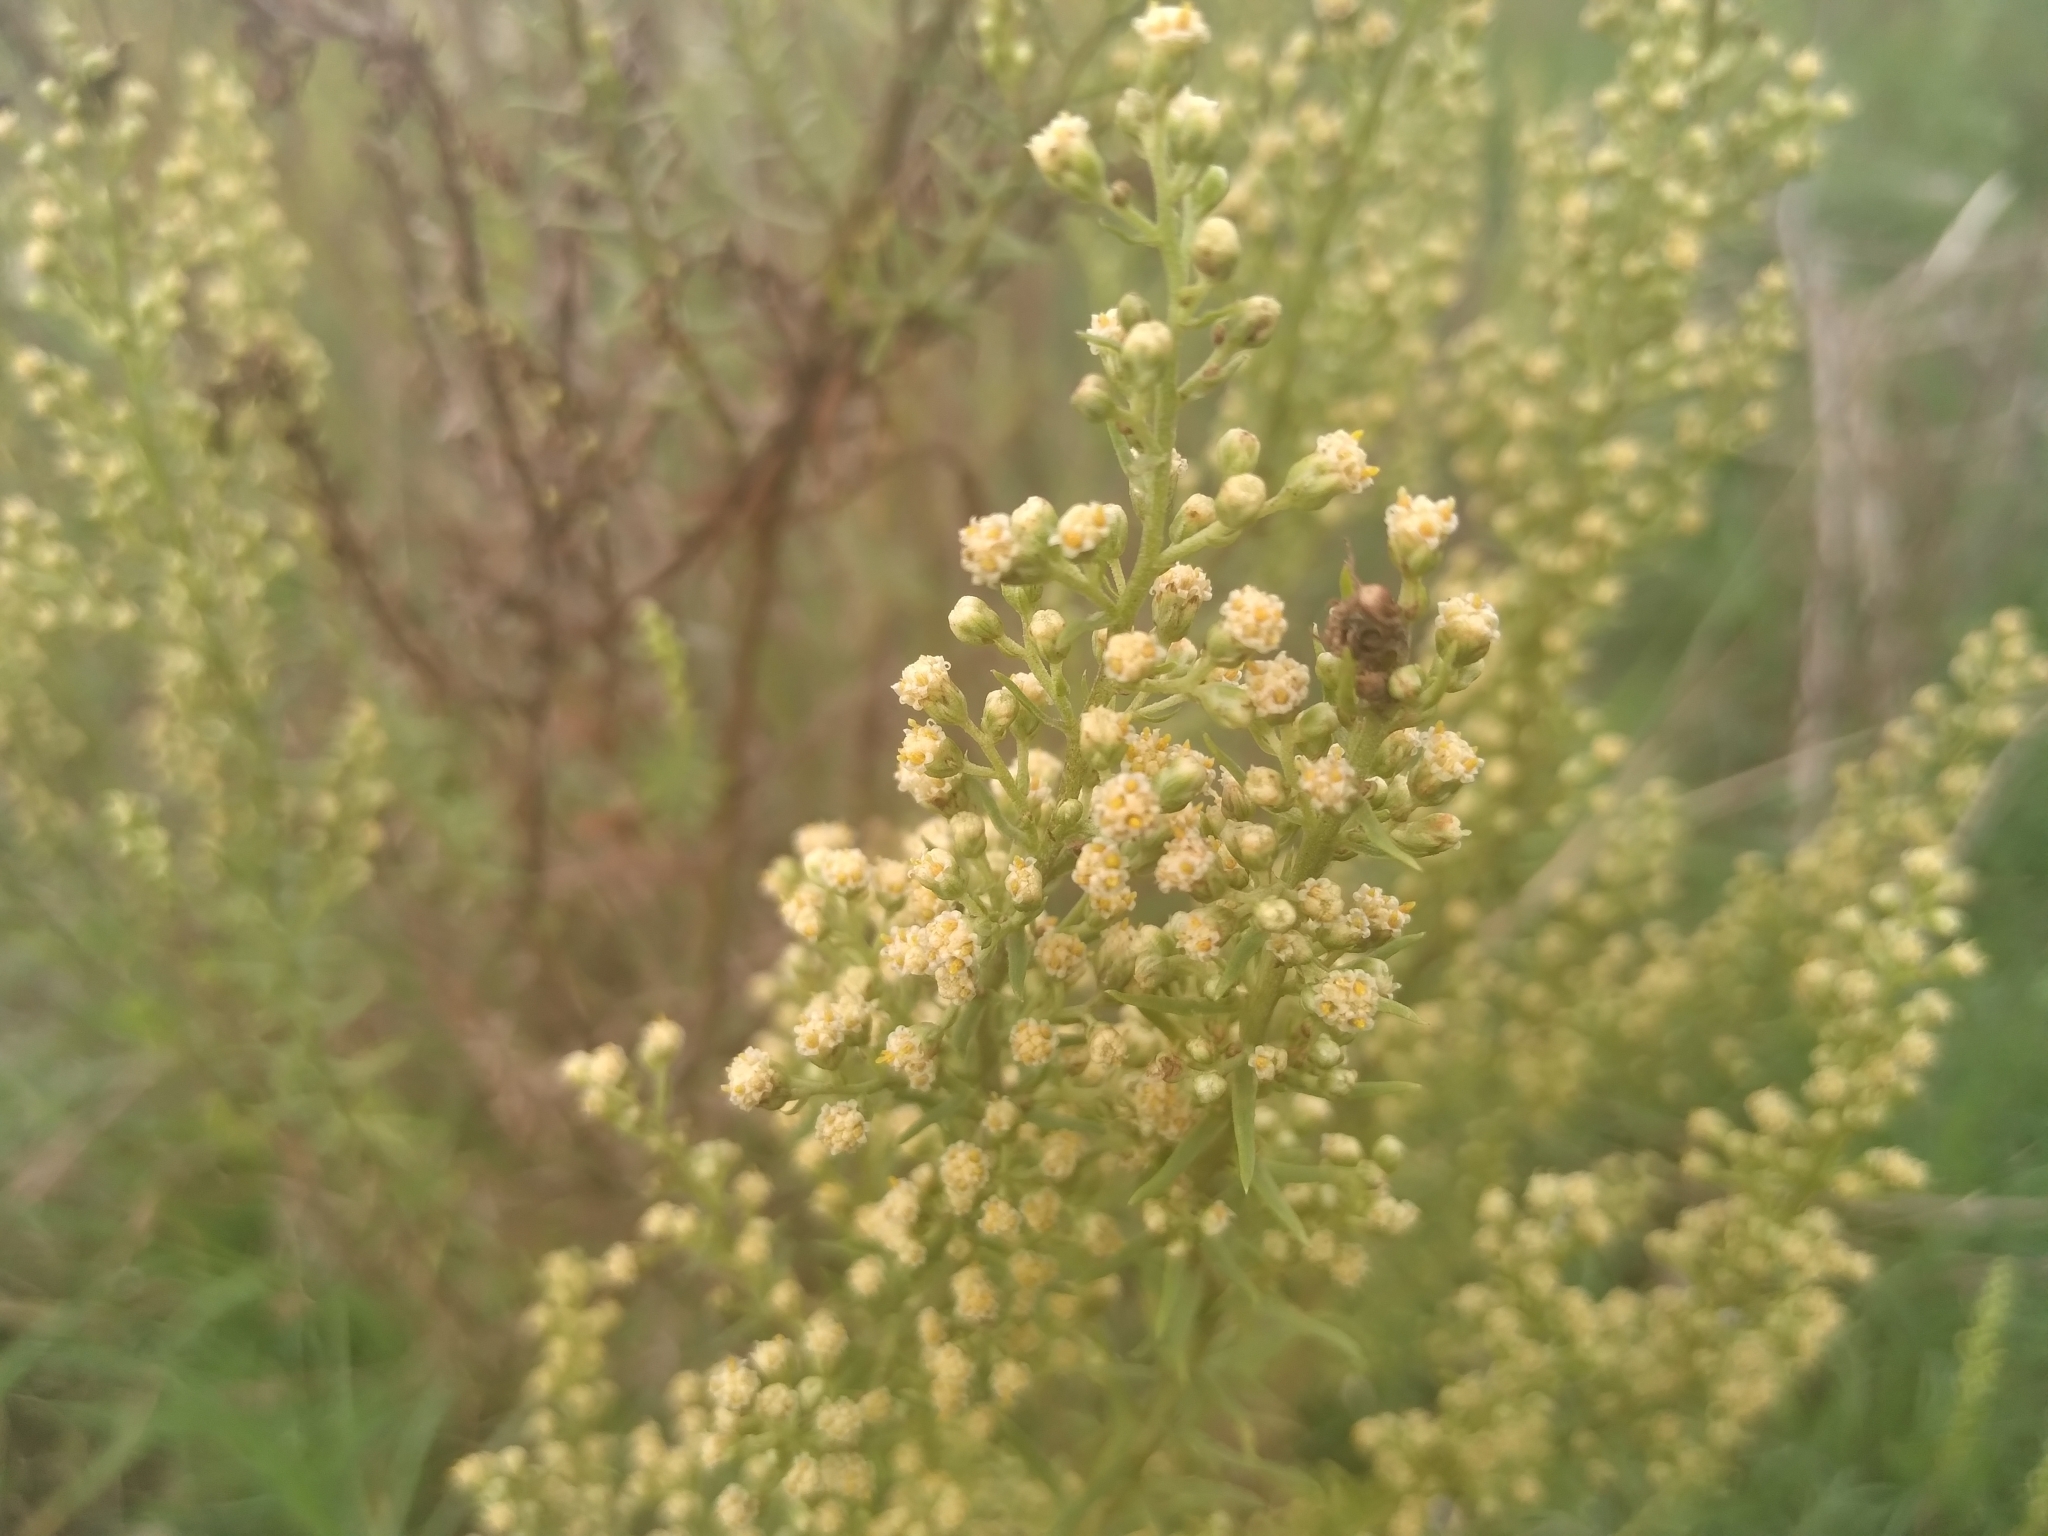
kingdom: Plantae
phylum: Tracheophyta
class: Magnoliopsida
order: Asterales
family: Asteraceae
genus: Baccharis
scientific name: Baccharis coridifolia
